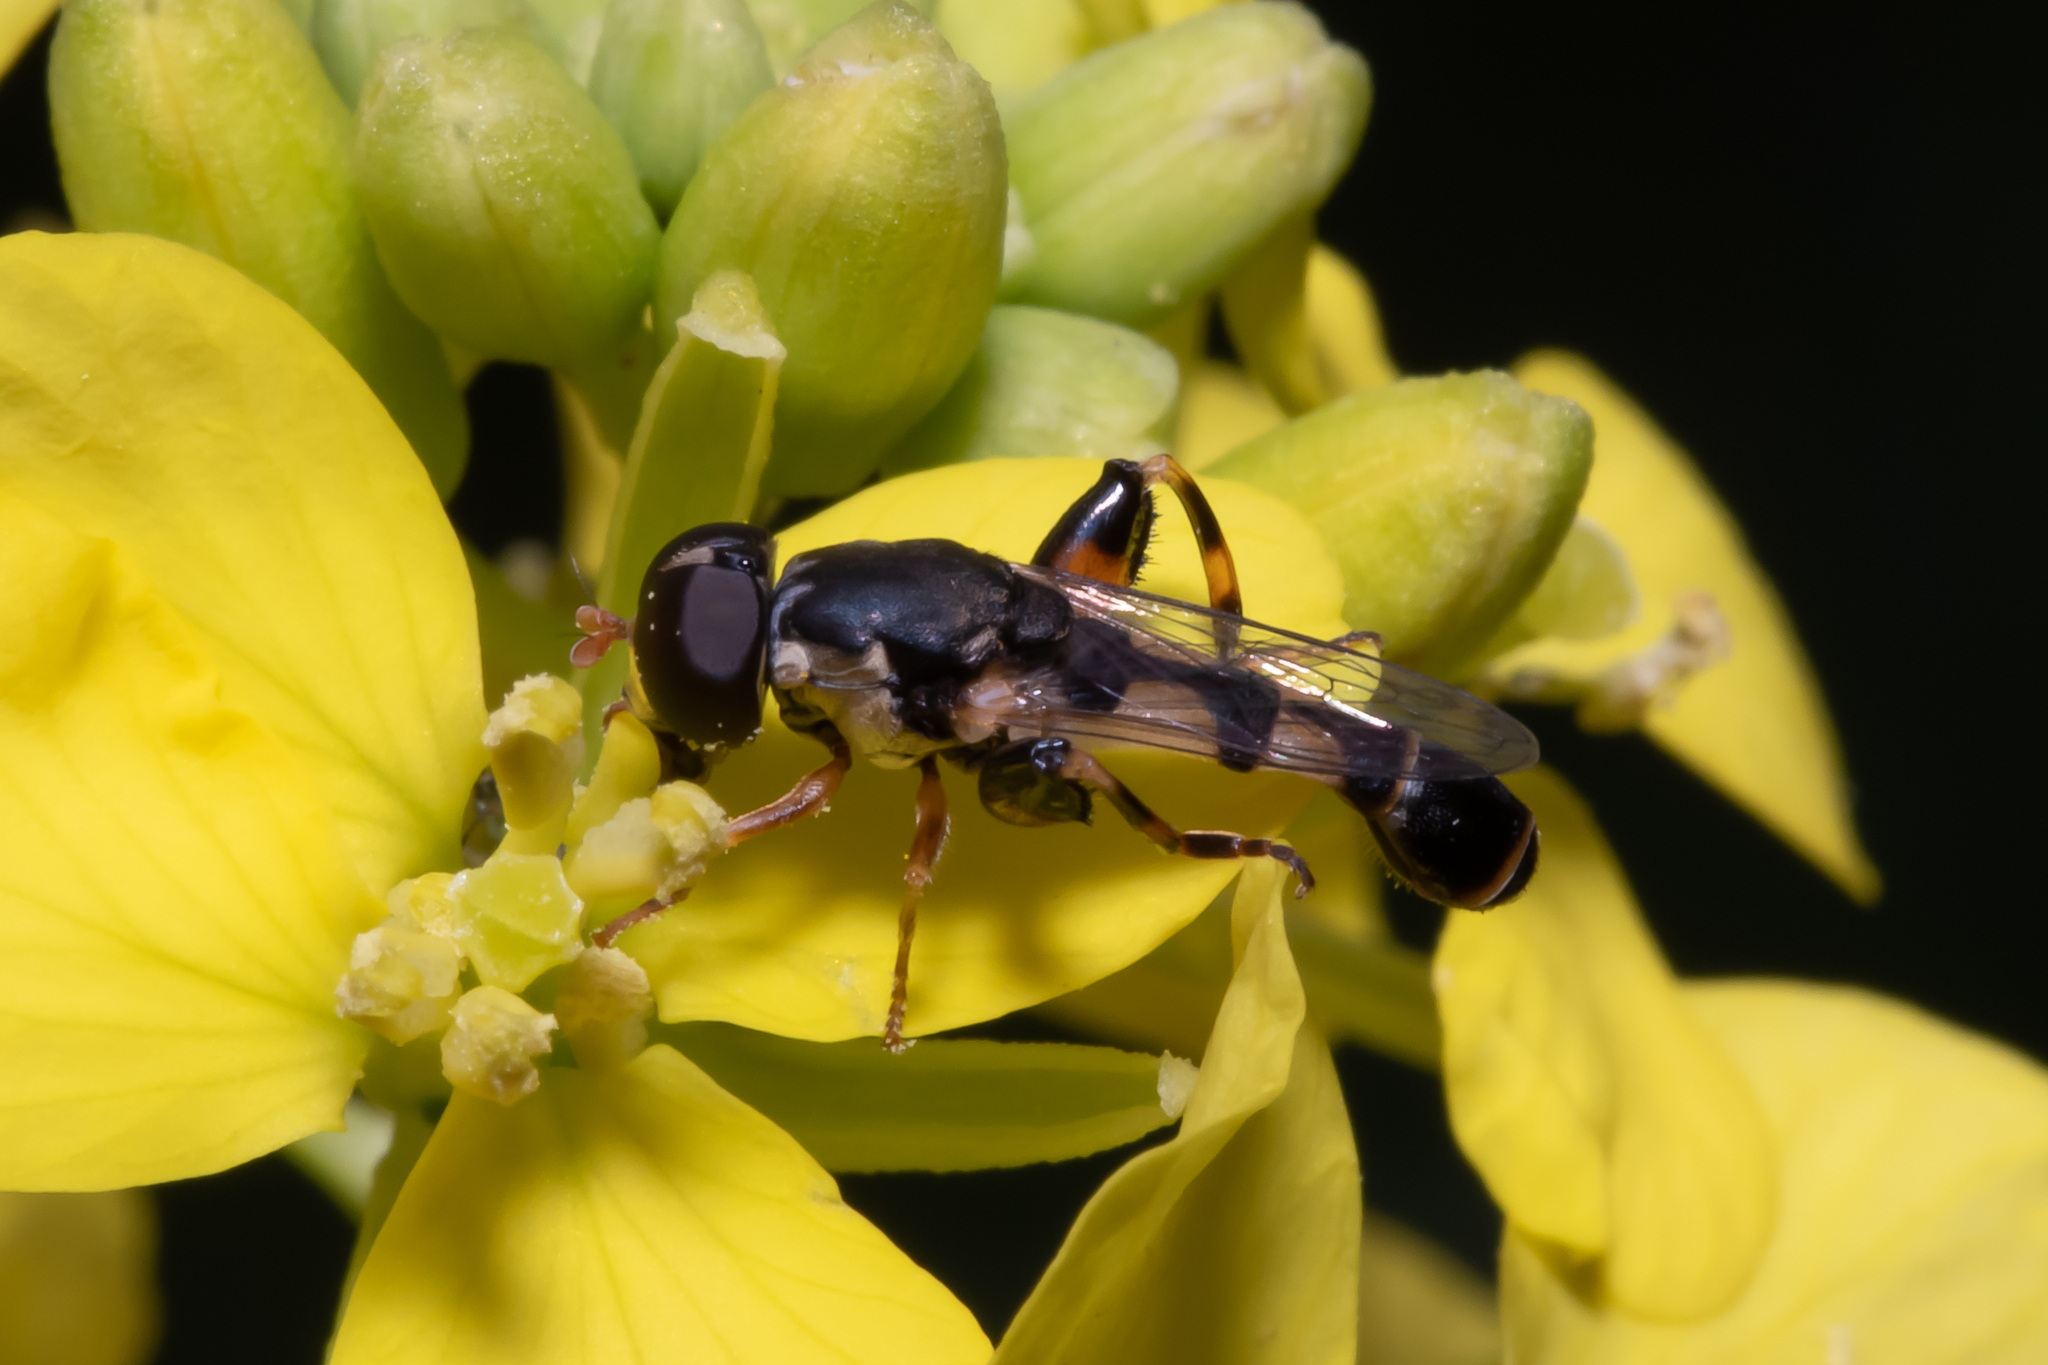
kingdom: Animalia
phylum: Arthropoda
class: Insecta
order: Diptera
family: Syrphidae
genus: Syritta
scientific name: Syritta pipiens
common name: Hover fly
